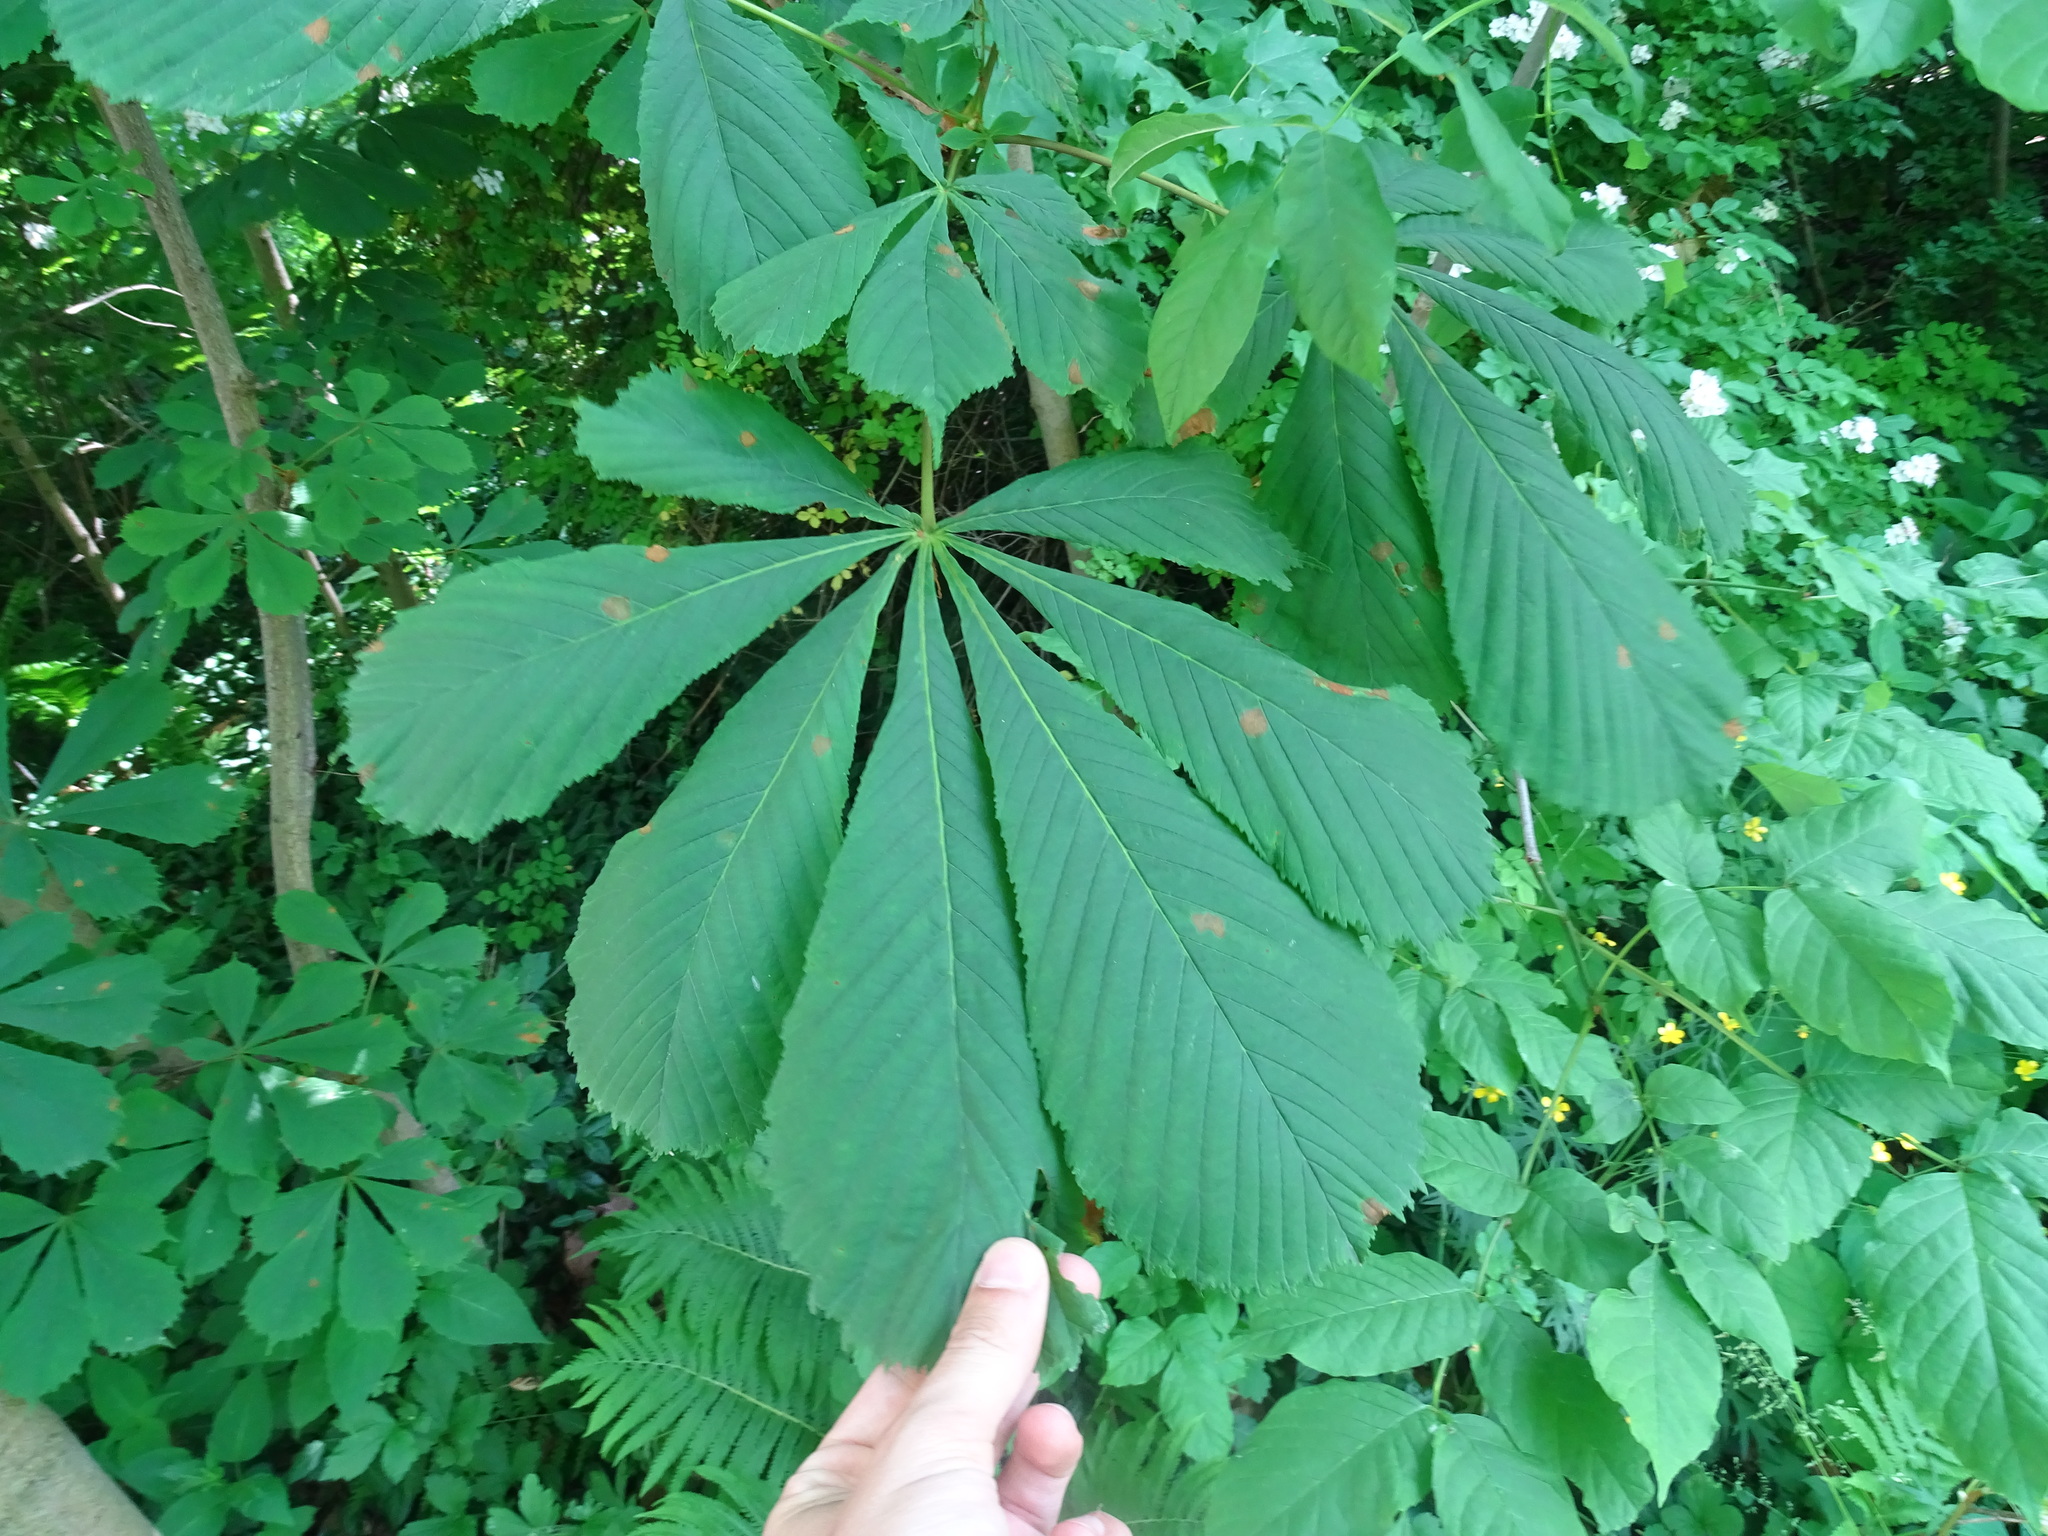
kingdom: Plantae
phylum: Tracheophyta
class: Magnoliopsida
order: Sapindales
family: Sapindaceae
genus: Aesculus
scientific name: Aesculus hippocastanum
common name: Horse-chestnut
